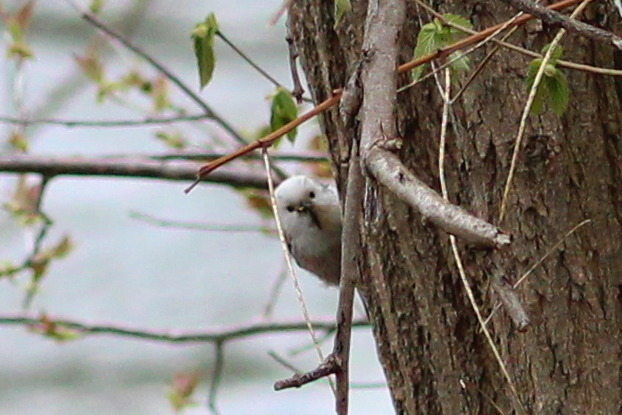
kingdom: Animalia
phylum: Chordata
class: Aves
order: Passeriformes
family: Aegithalidae
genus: Aegithalos
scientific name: Aegithalos caudatus
